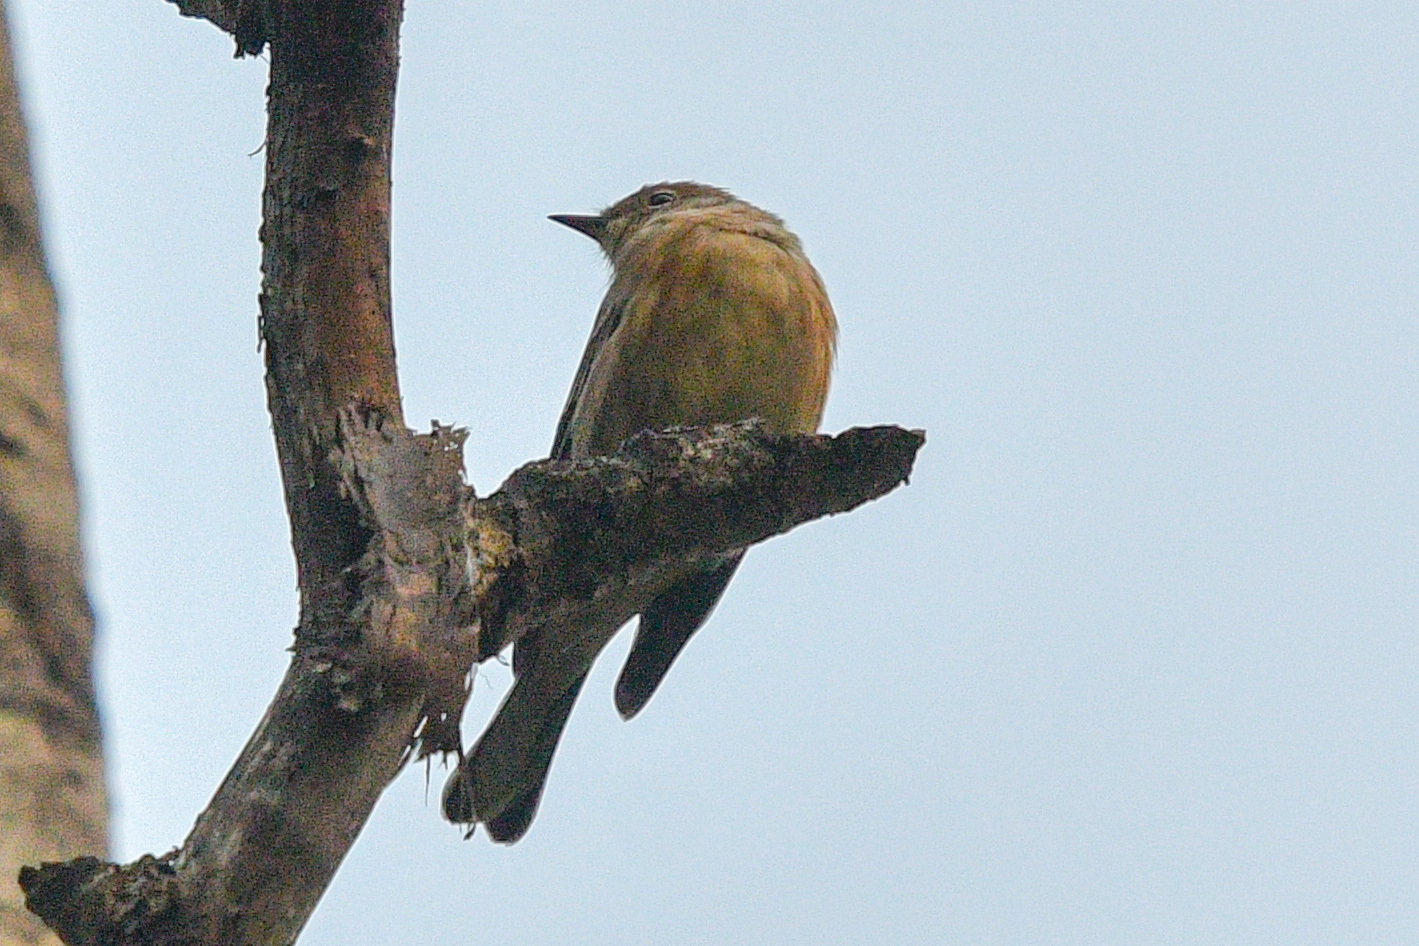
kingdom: Animalia
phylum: Chordata
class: Aves
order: Passeriformes
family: Parulidae
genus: Setophaga
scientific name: Setophaga coronata
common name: Myrtle warbler
